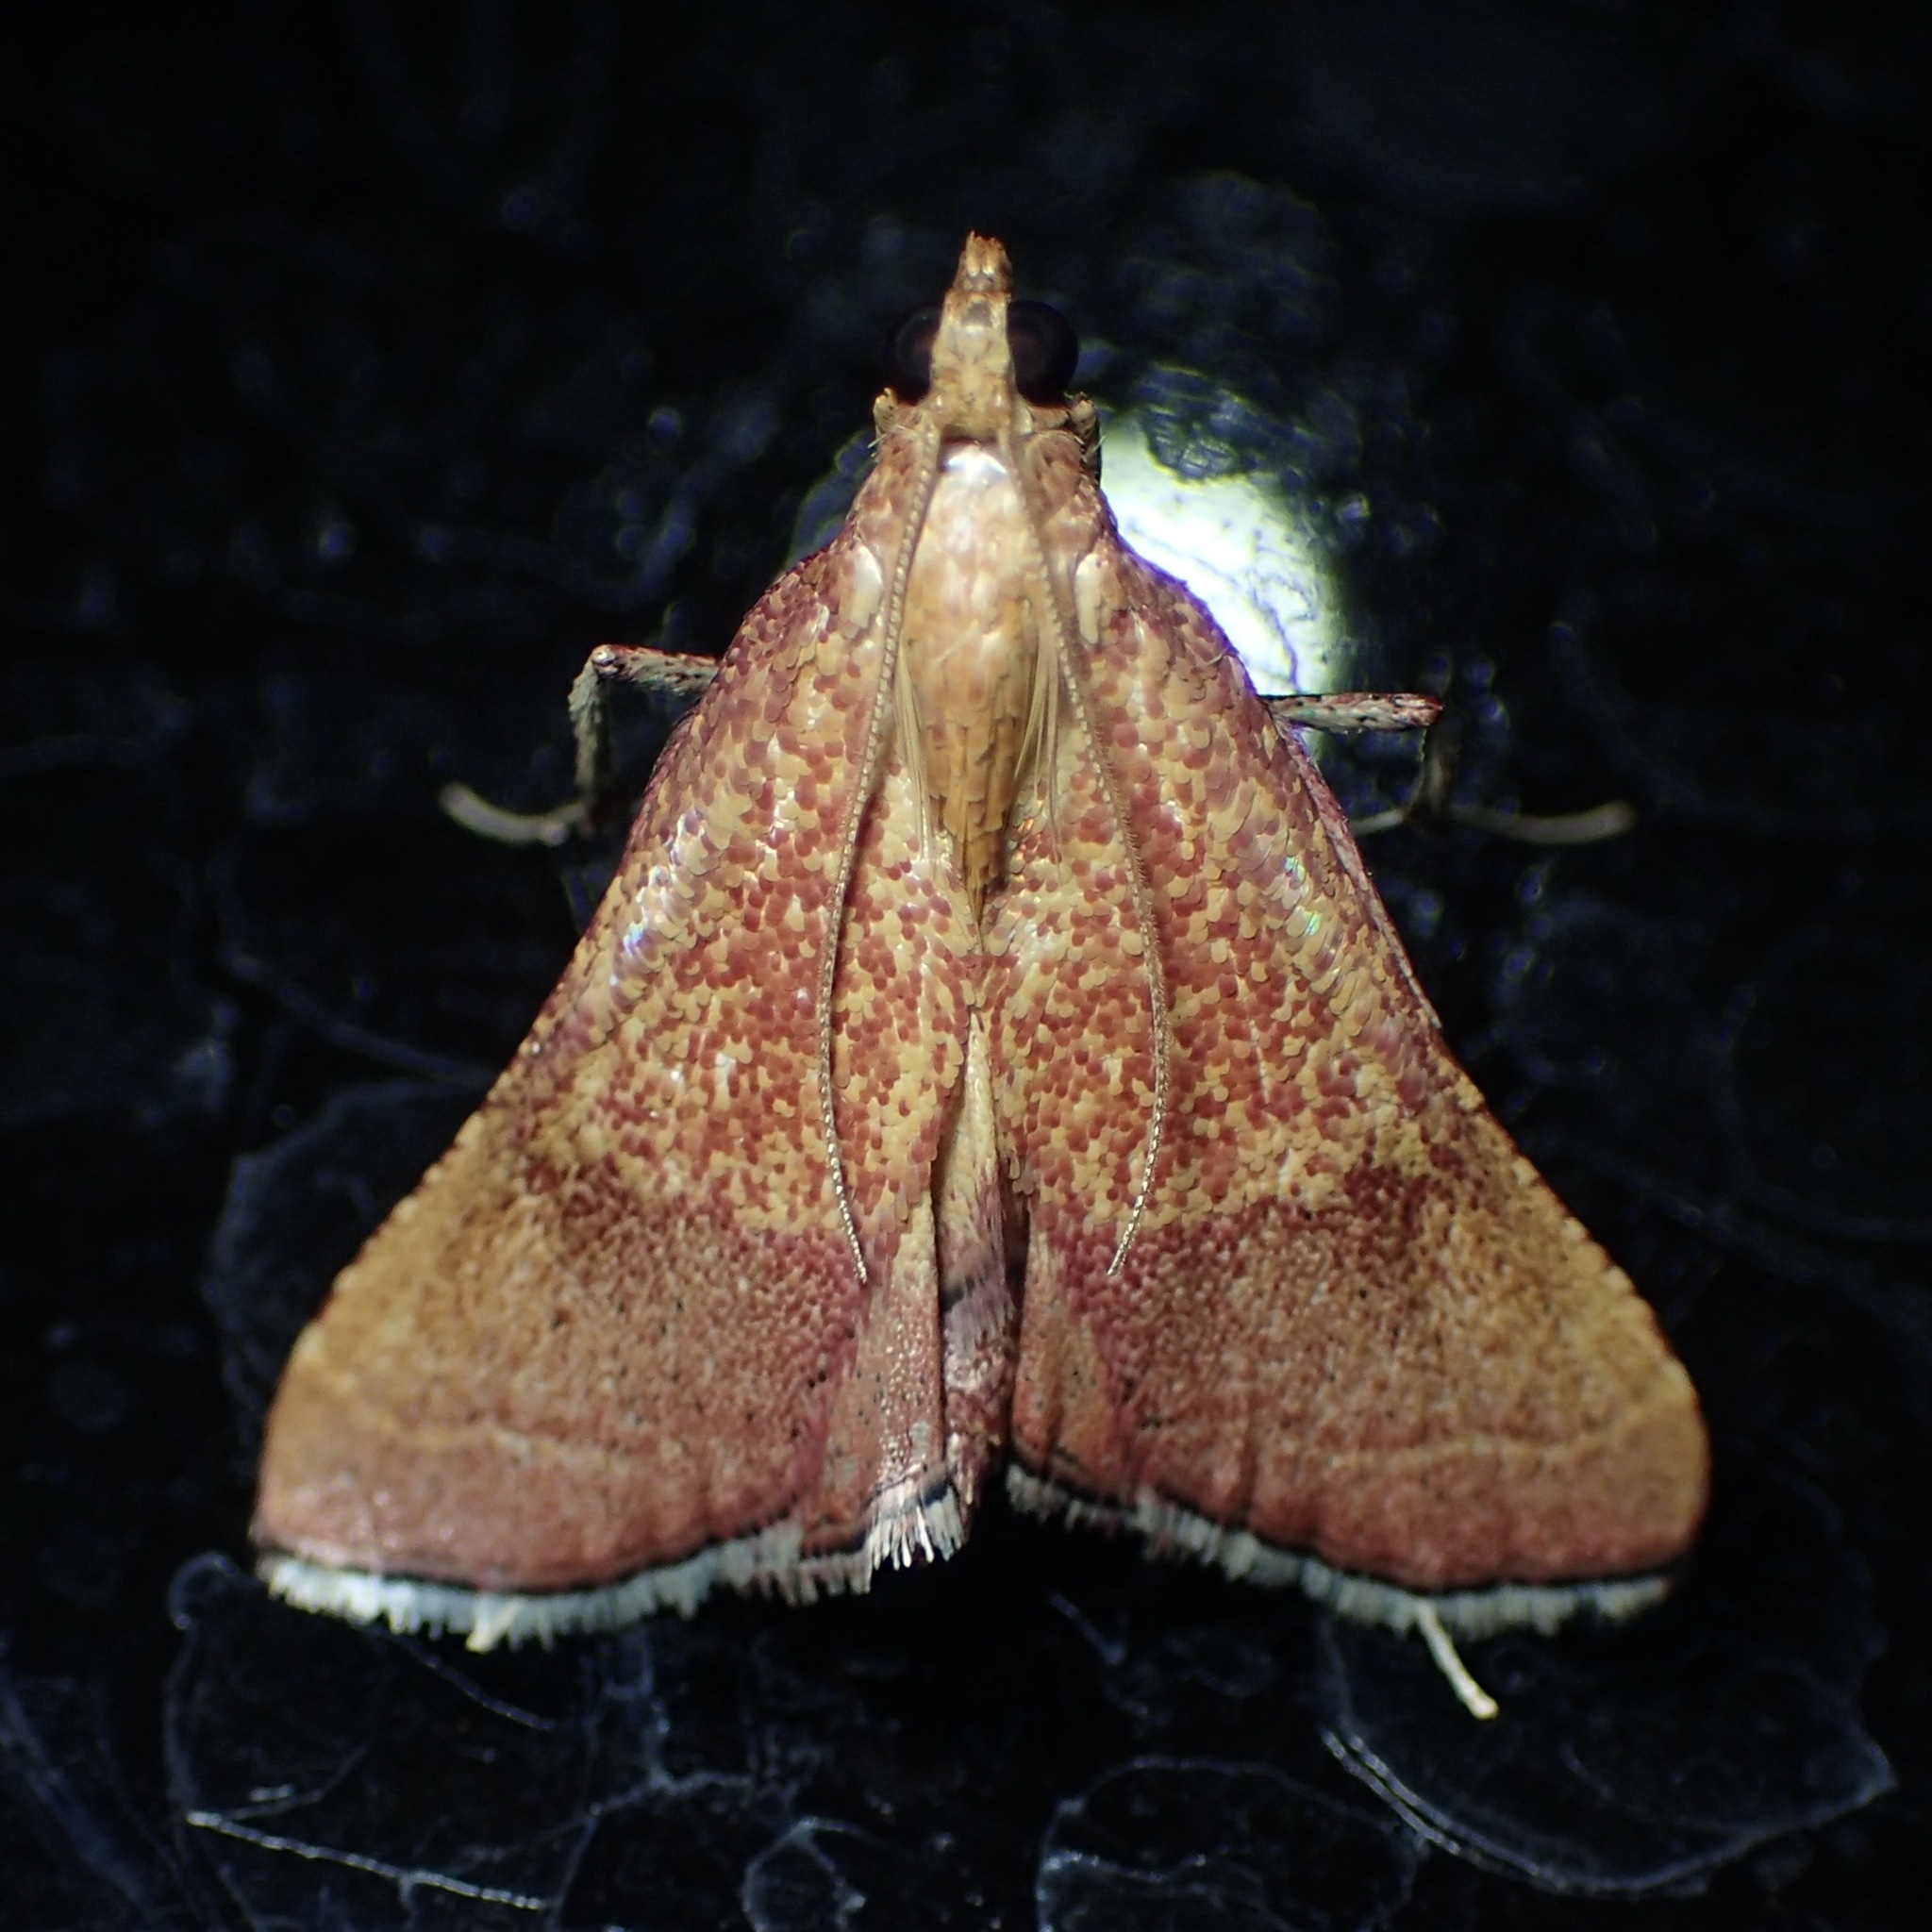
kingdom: Animalia
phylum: Arthropoda
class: Insecta
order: Lepidoptera
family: Pyralidae
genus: Endotricha
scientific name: Endotricha pyrosalis
